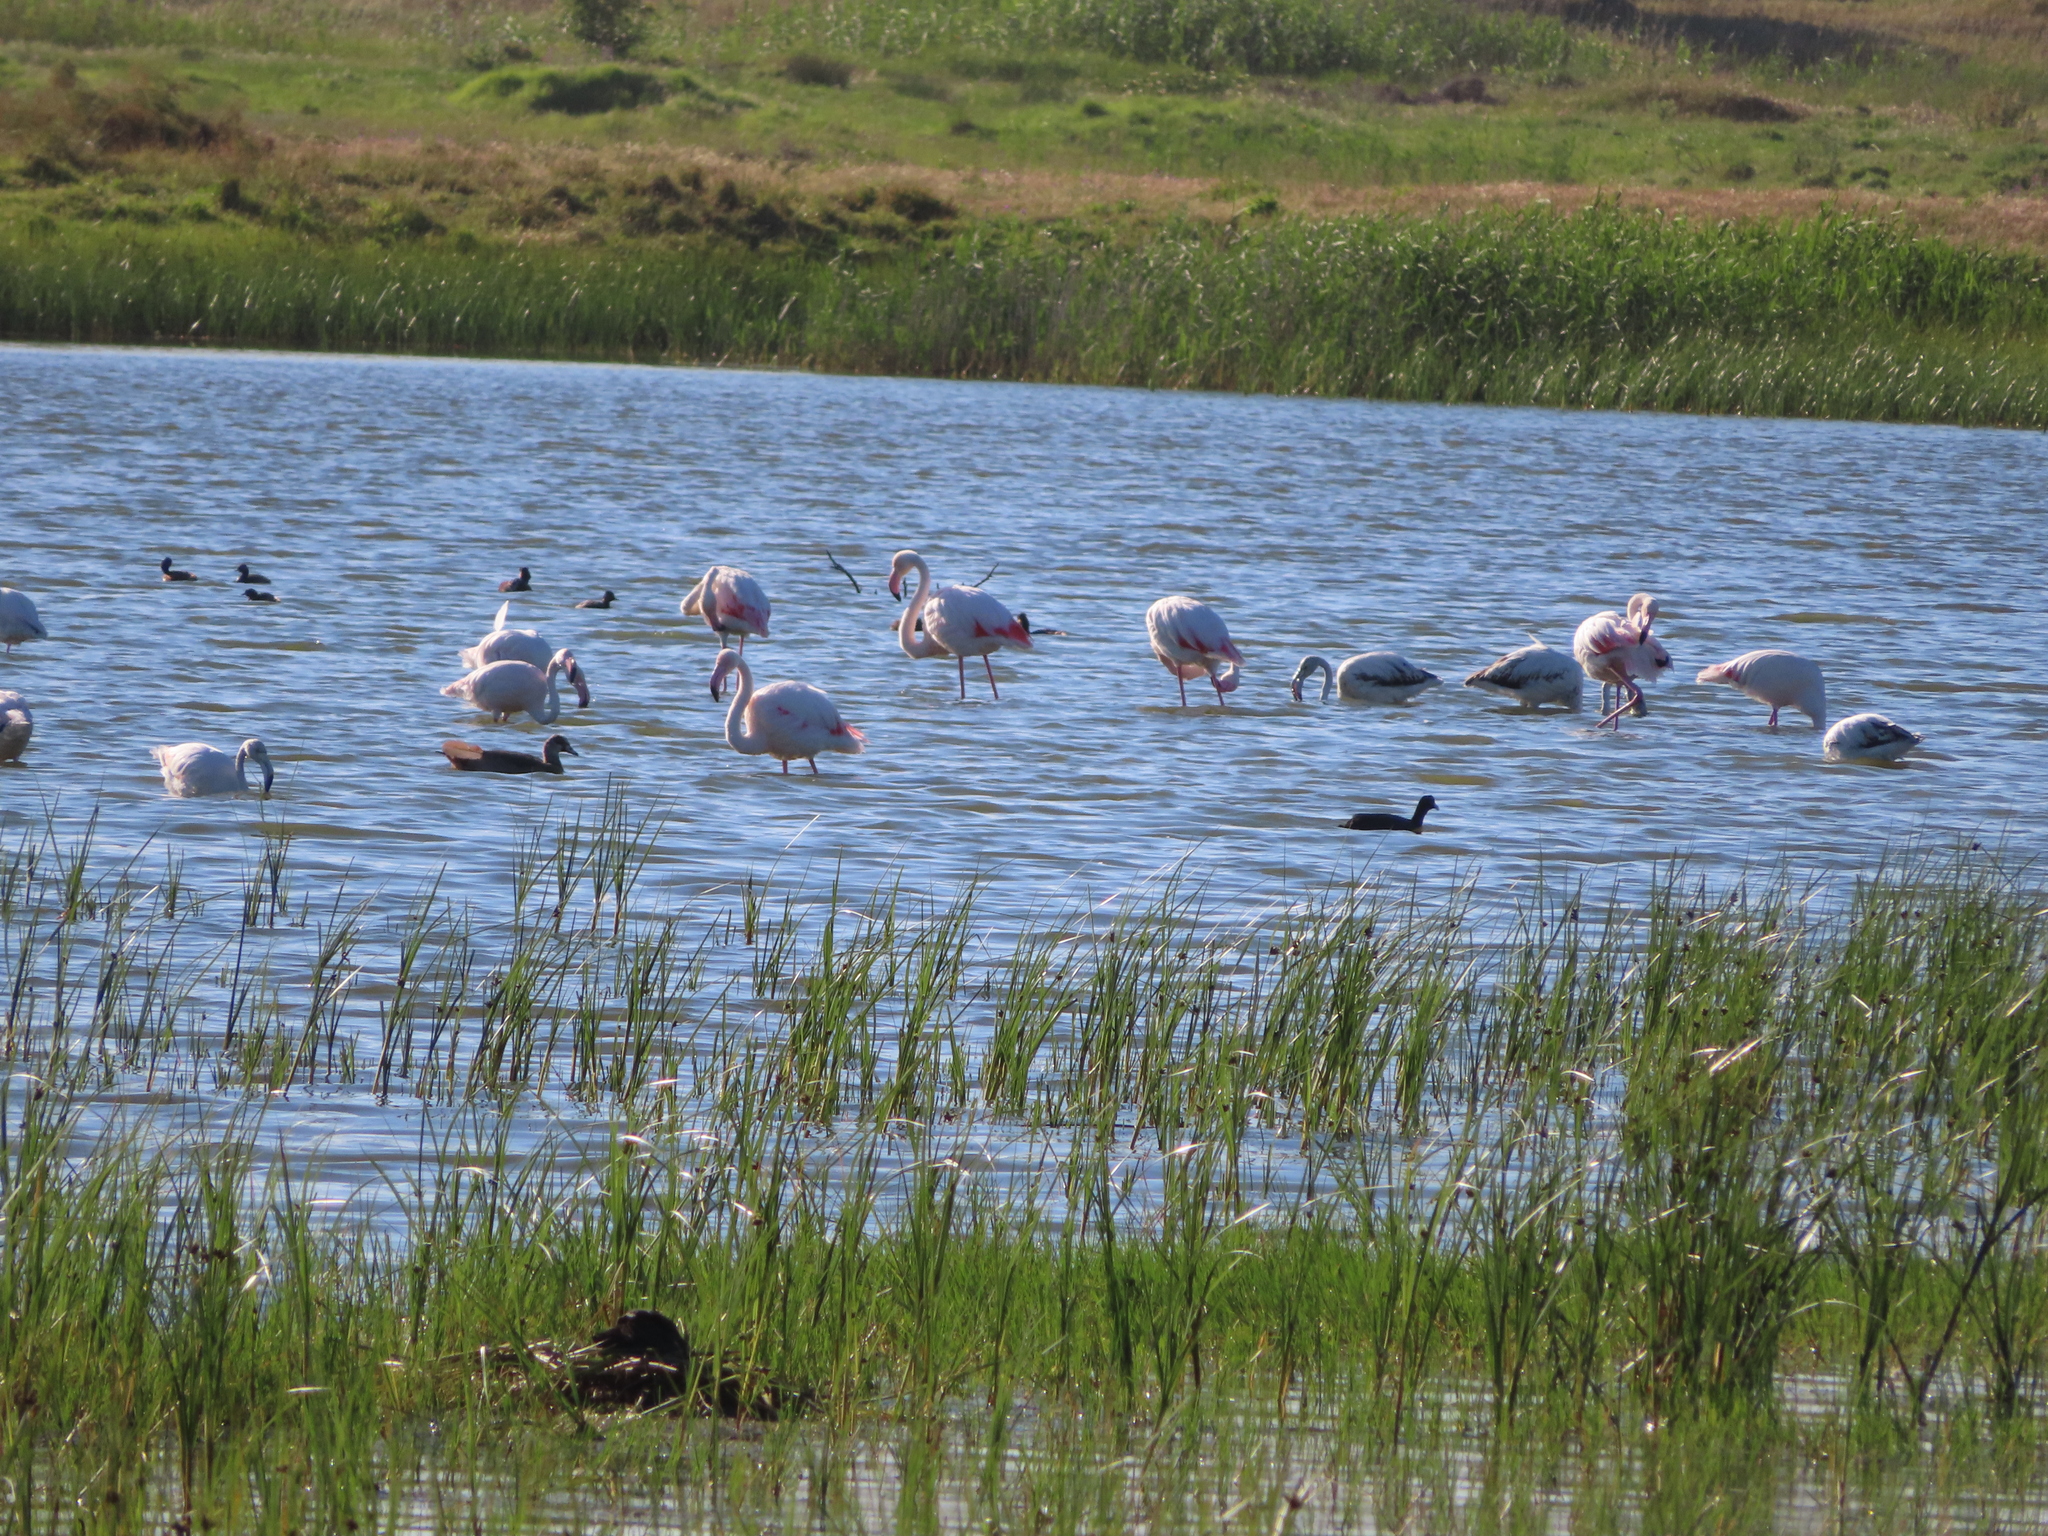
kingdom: Animalia
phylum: Chordata
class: Aves
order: Phoenicopteriformes
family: Phoenicopteridae
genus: Phoenicopterus
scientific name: Phoenicopterus roseus
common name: Greater flamingo
